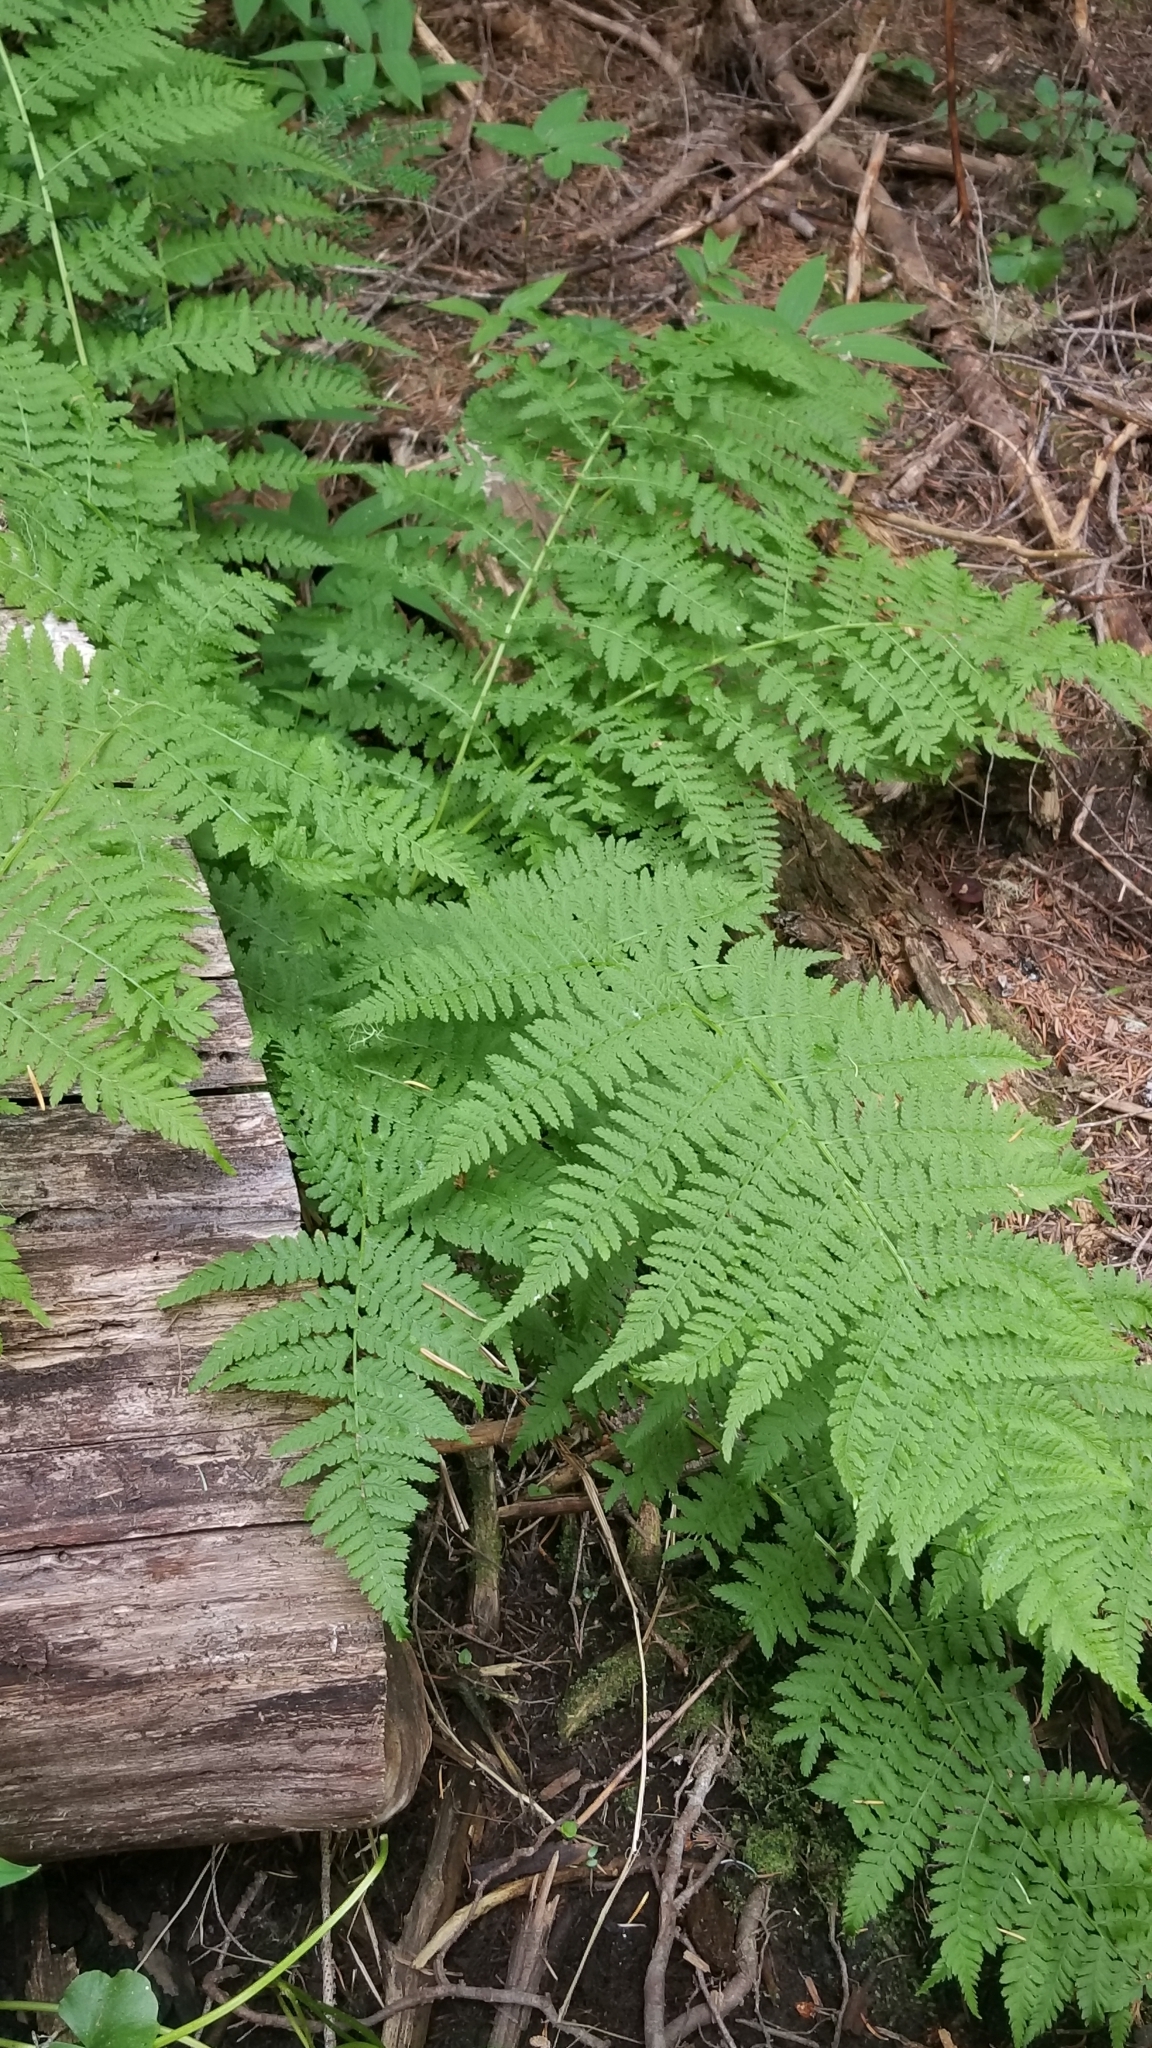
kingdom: Plantae
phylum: Tracheophyta
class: Polypodiopsida
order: Polypodiales
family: Athyriaceae
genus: Athyrium
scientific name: Athyrium filix-femina
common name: Lady fern
